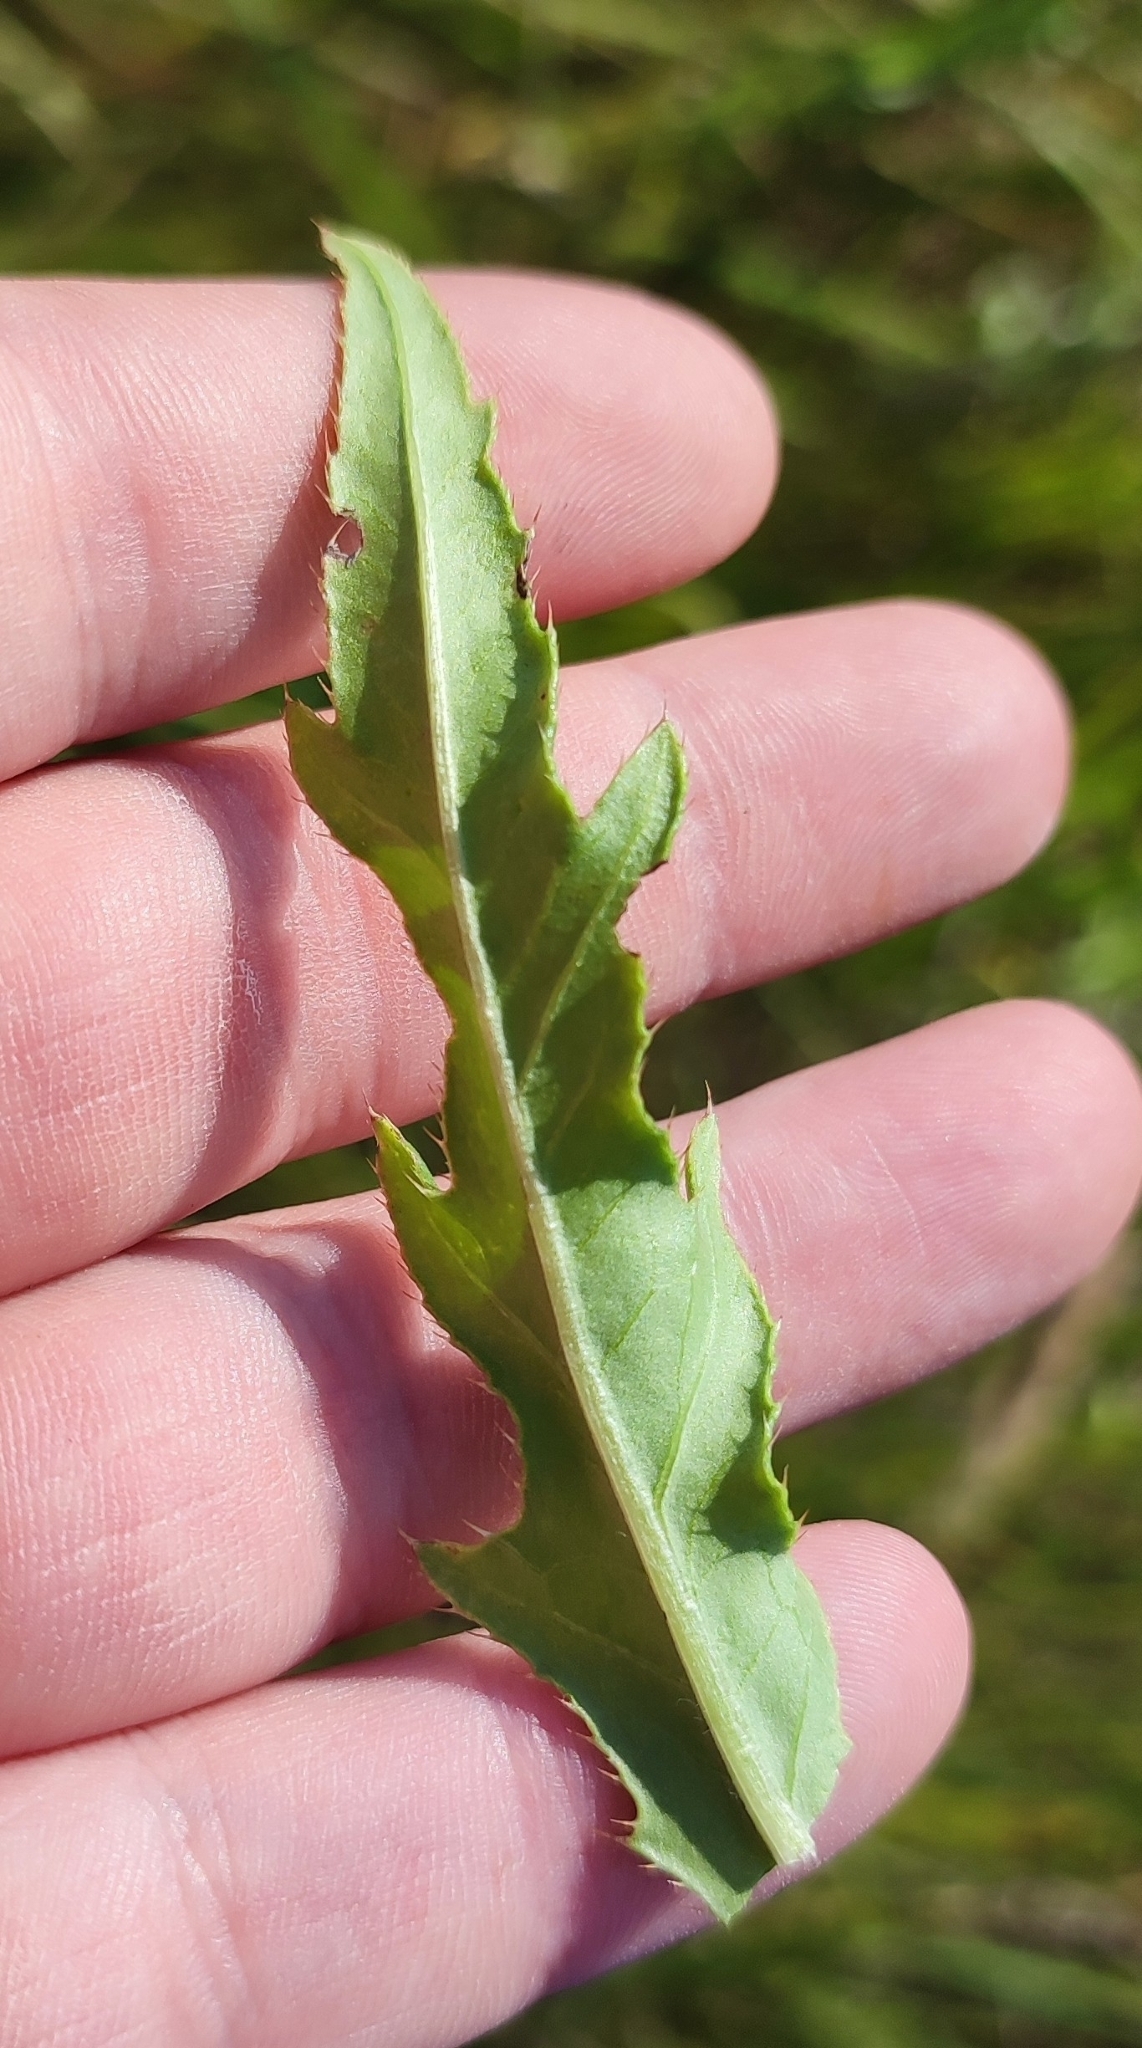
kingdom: Plantae
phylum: Tracheophyta
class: Magnoliopsida
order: Asterales
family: Asteraceae
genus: Cirsium
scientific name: Cirsium arvense
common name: Creeping thistle
